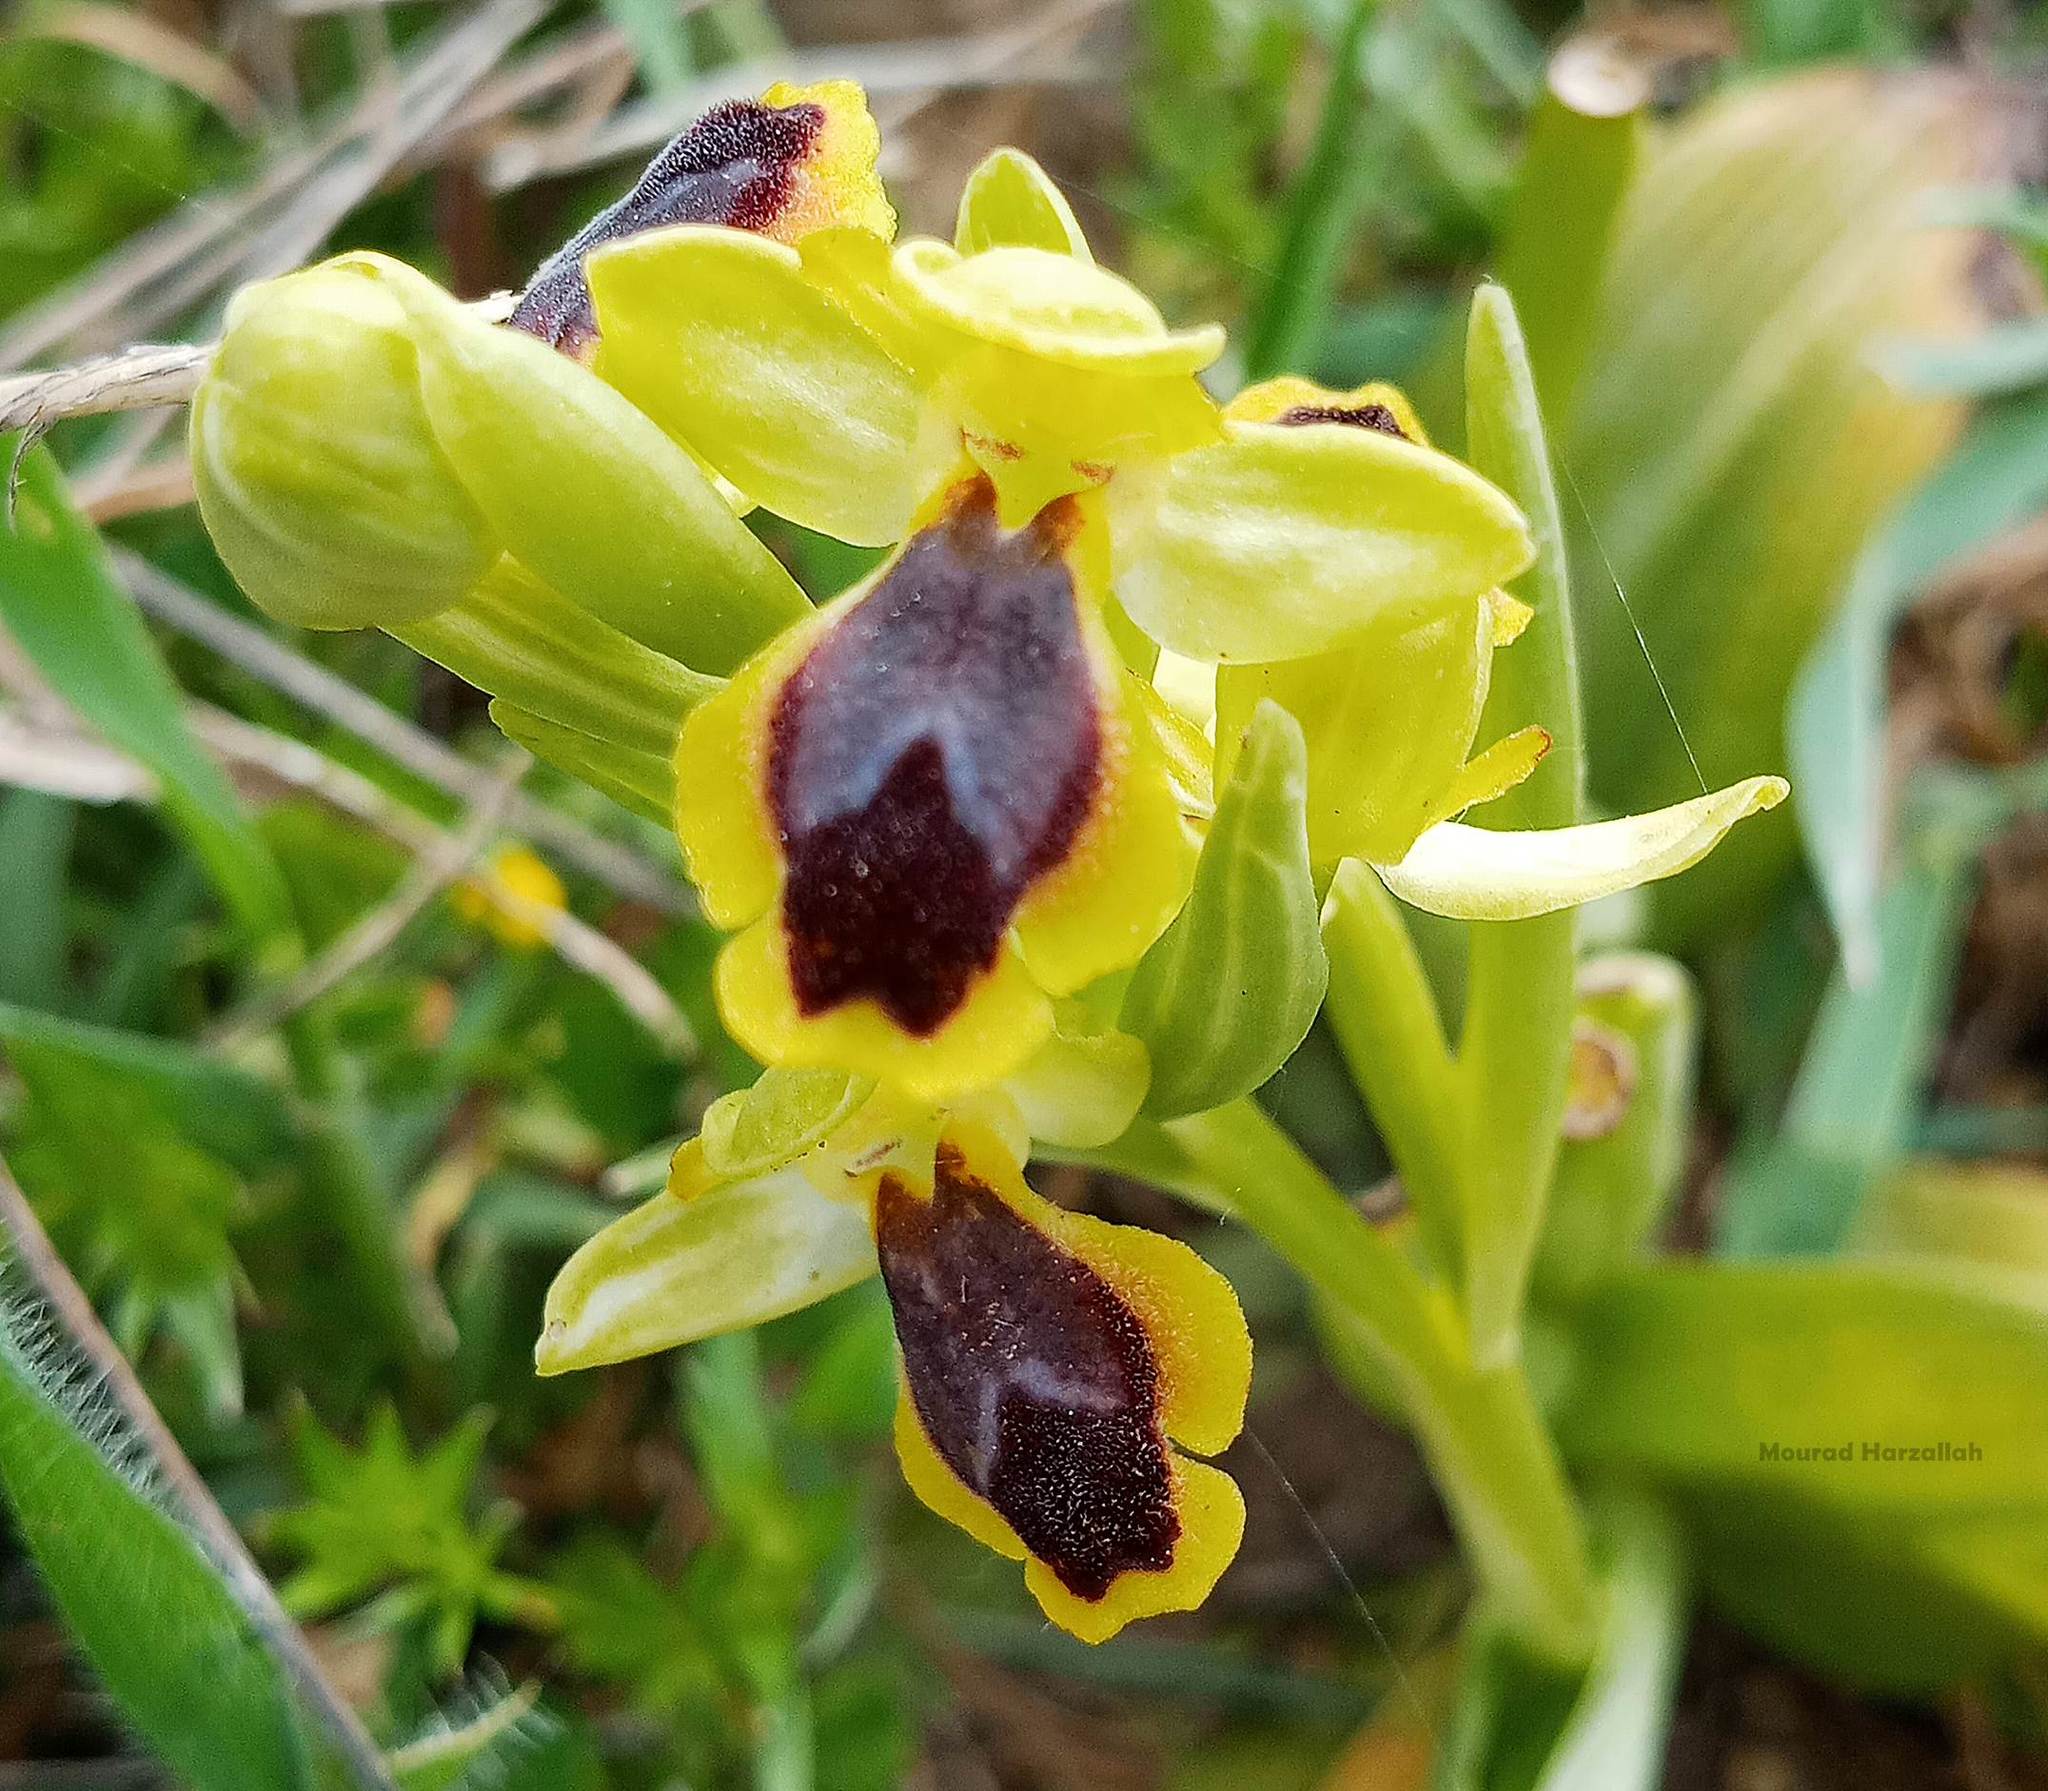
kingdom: Plantae
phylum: Tracheophyta
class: Liliopsida
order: Asparagales
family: Orchidaceae
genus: Ophrys
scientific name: Ophrys lutea
